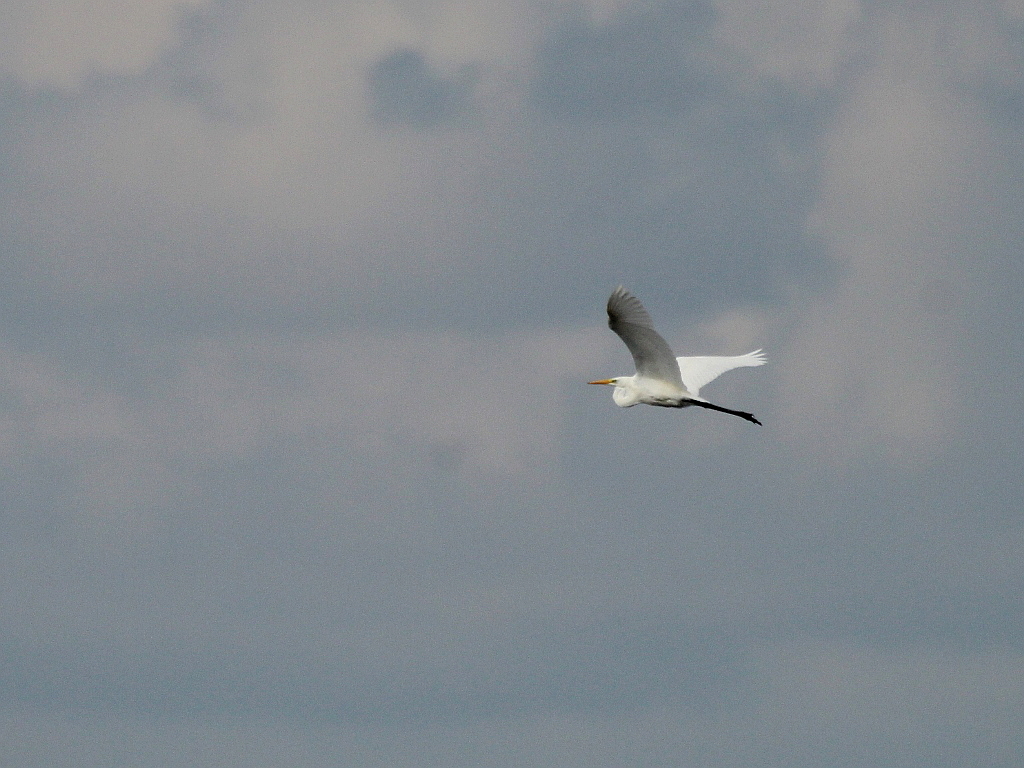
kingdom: Animalia
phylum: Chordata
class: Aves
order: Pelecaniformes
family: Ardeidae
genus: Ardea
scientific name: Ardea alba
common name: Great egret
